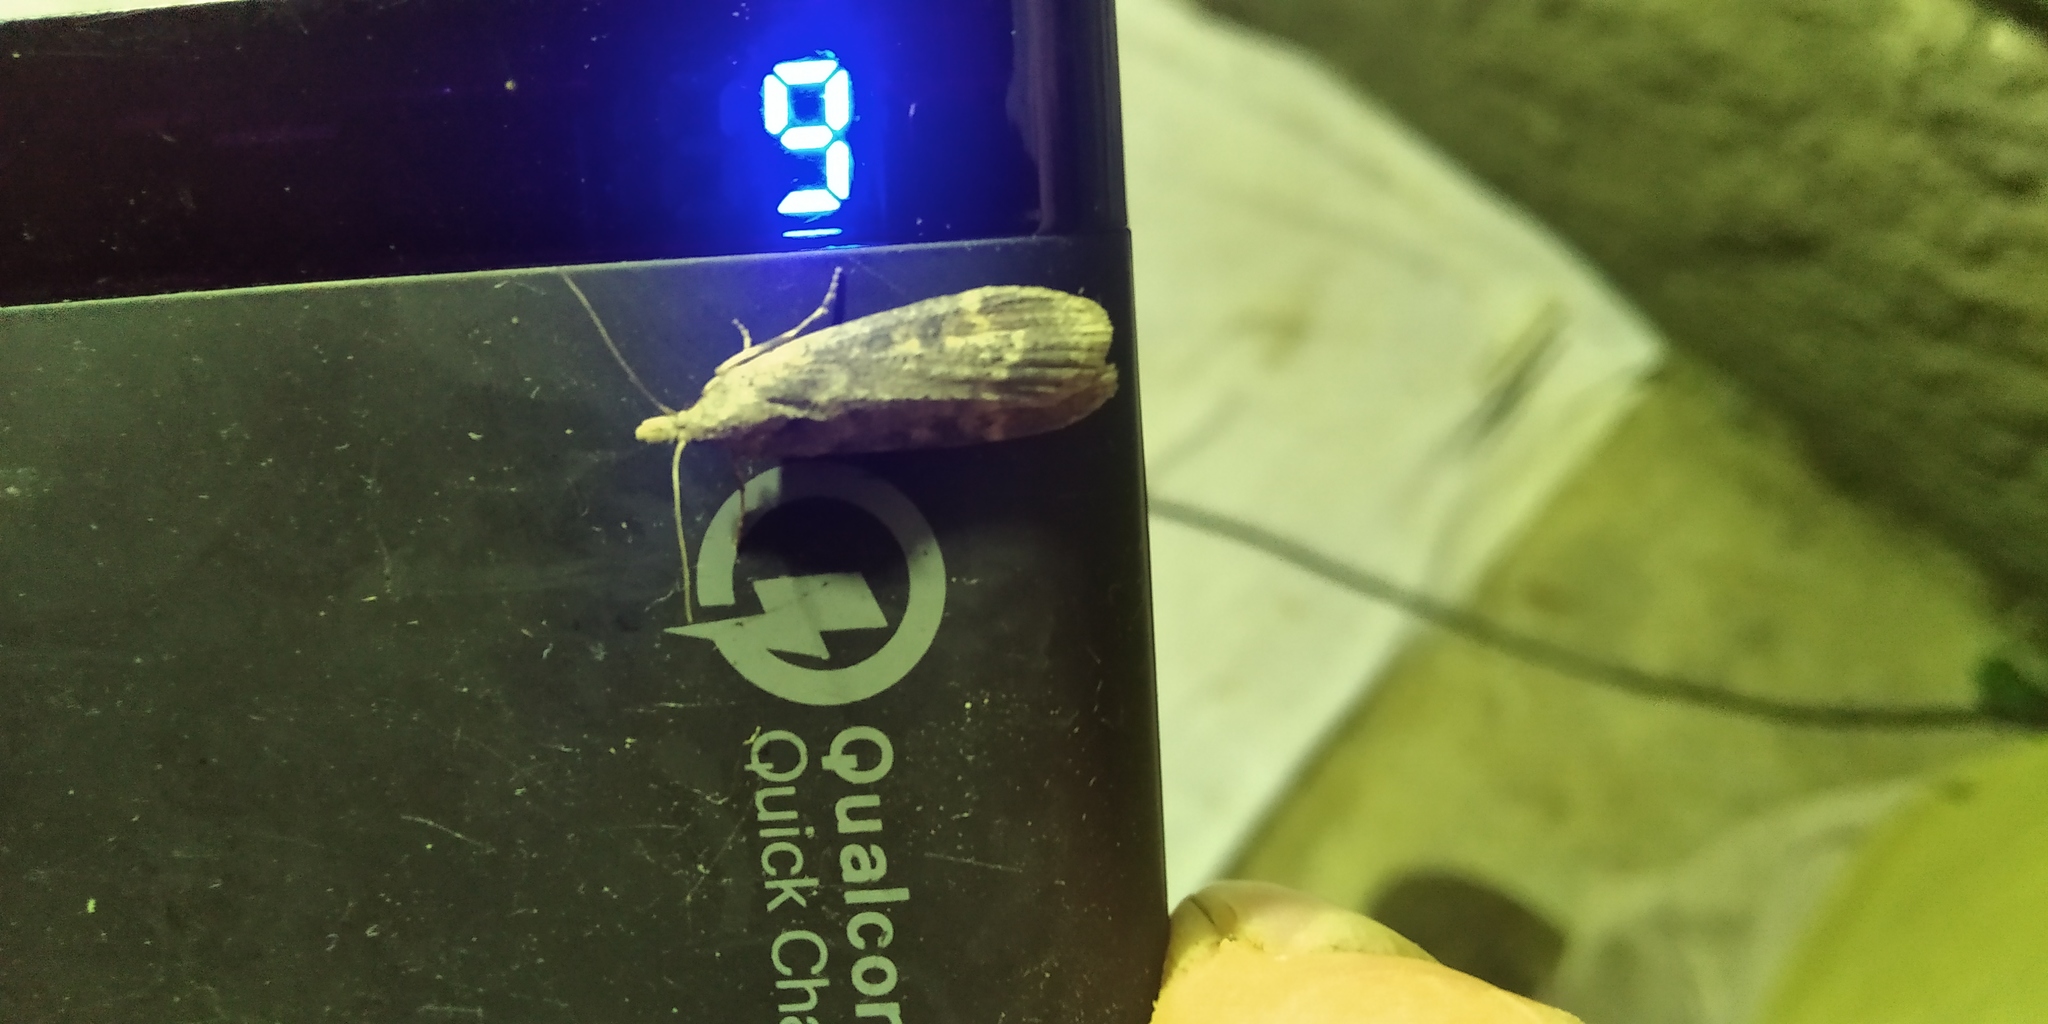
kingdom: Animalia
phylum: Arthropoda
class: Insecta
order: Lepidoptera
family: Pyralidae
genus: Lamoria
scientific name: Lamoria anella
